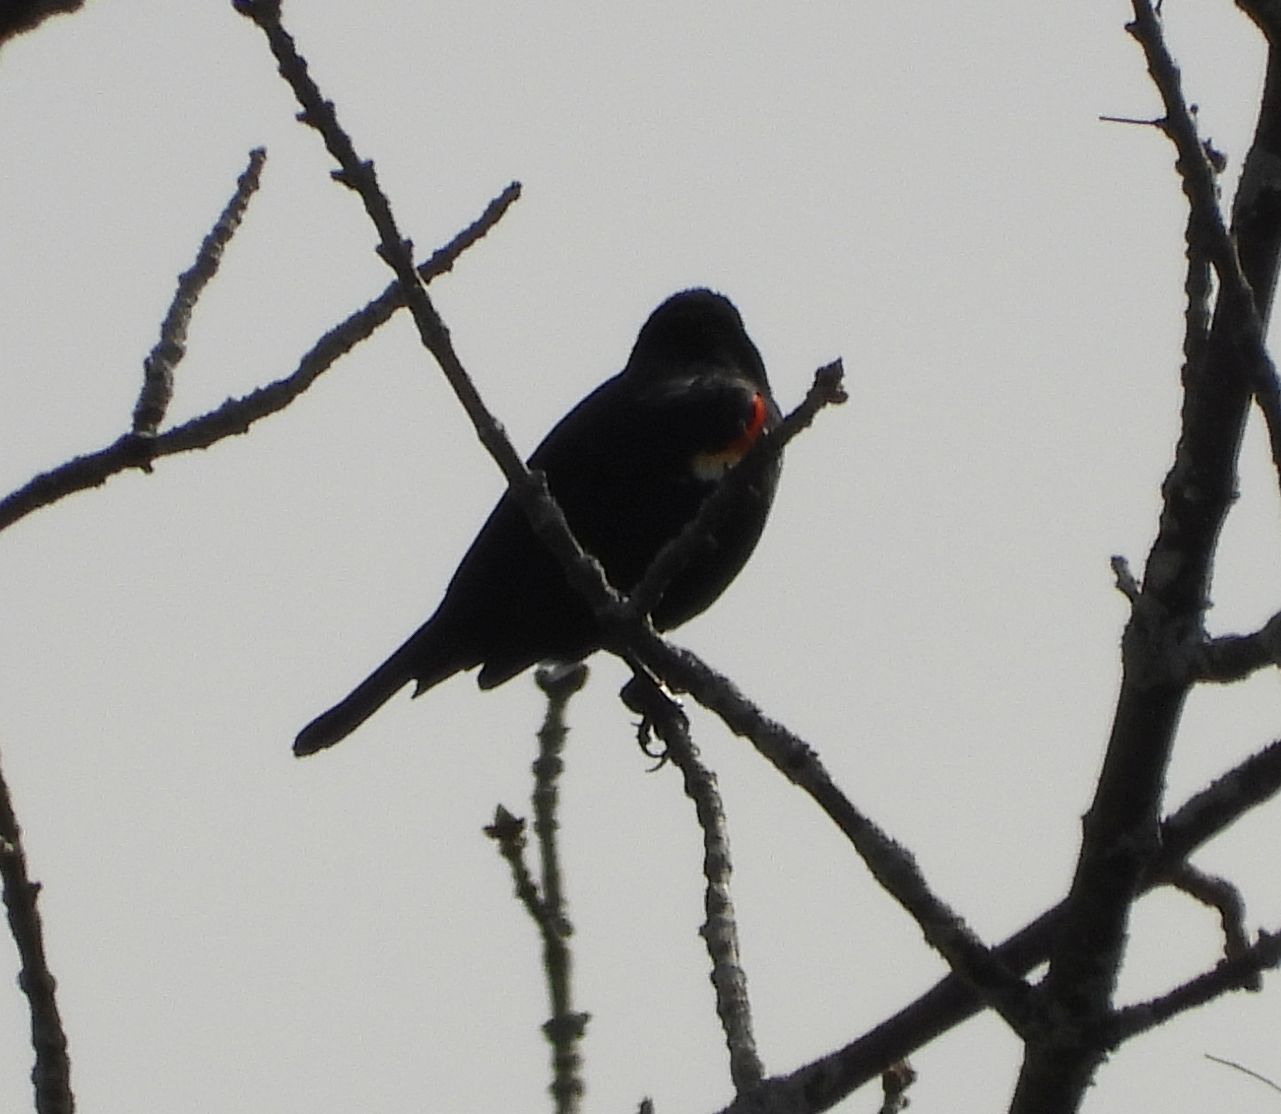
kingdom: Animalia
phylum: Chordata
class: Aves
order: Passeriformes
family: Icteridae
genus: Agelaius
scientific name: Agelaius phoeniceus
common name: Red-winged blackbird
